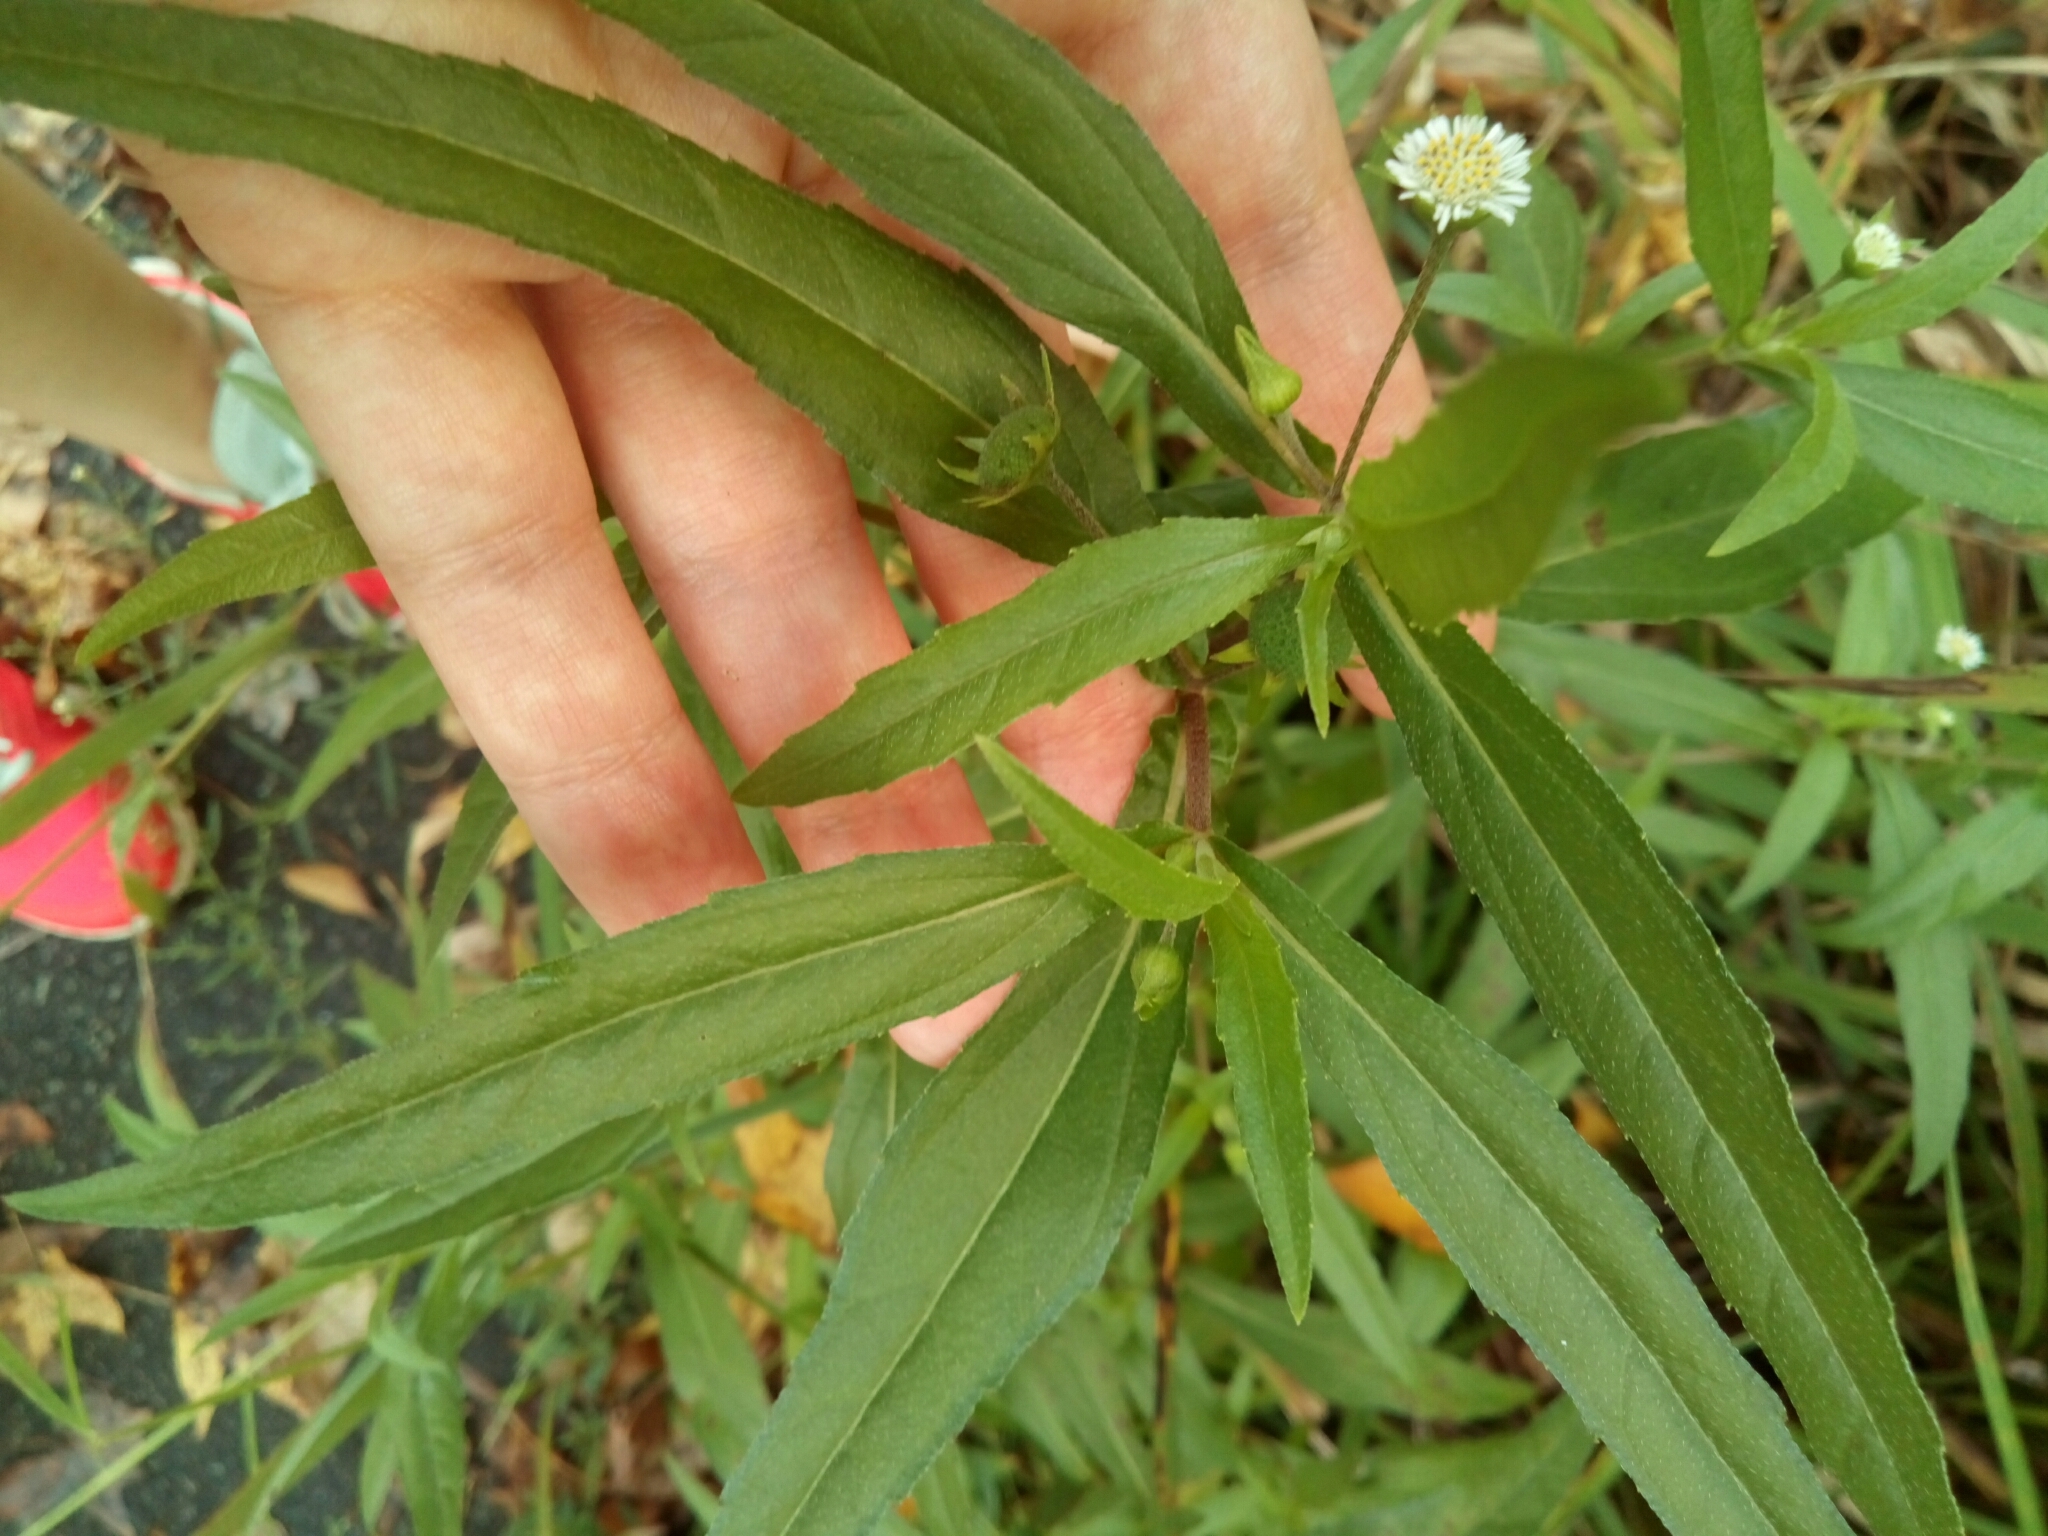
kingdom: Plantae
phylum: Tracheophyta
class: Magnoliopsida
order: Asterales
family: Asteraceae
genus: Eclipta
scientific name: Eclipta prostrata
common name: False daisy
